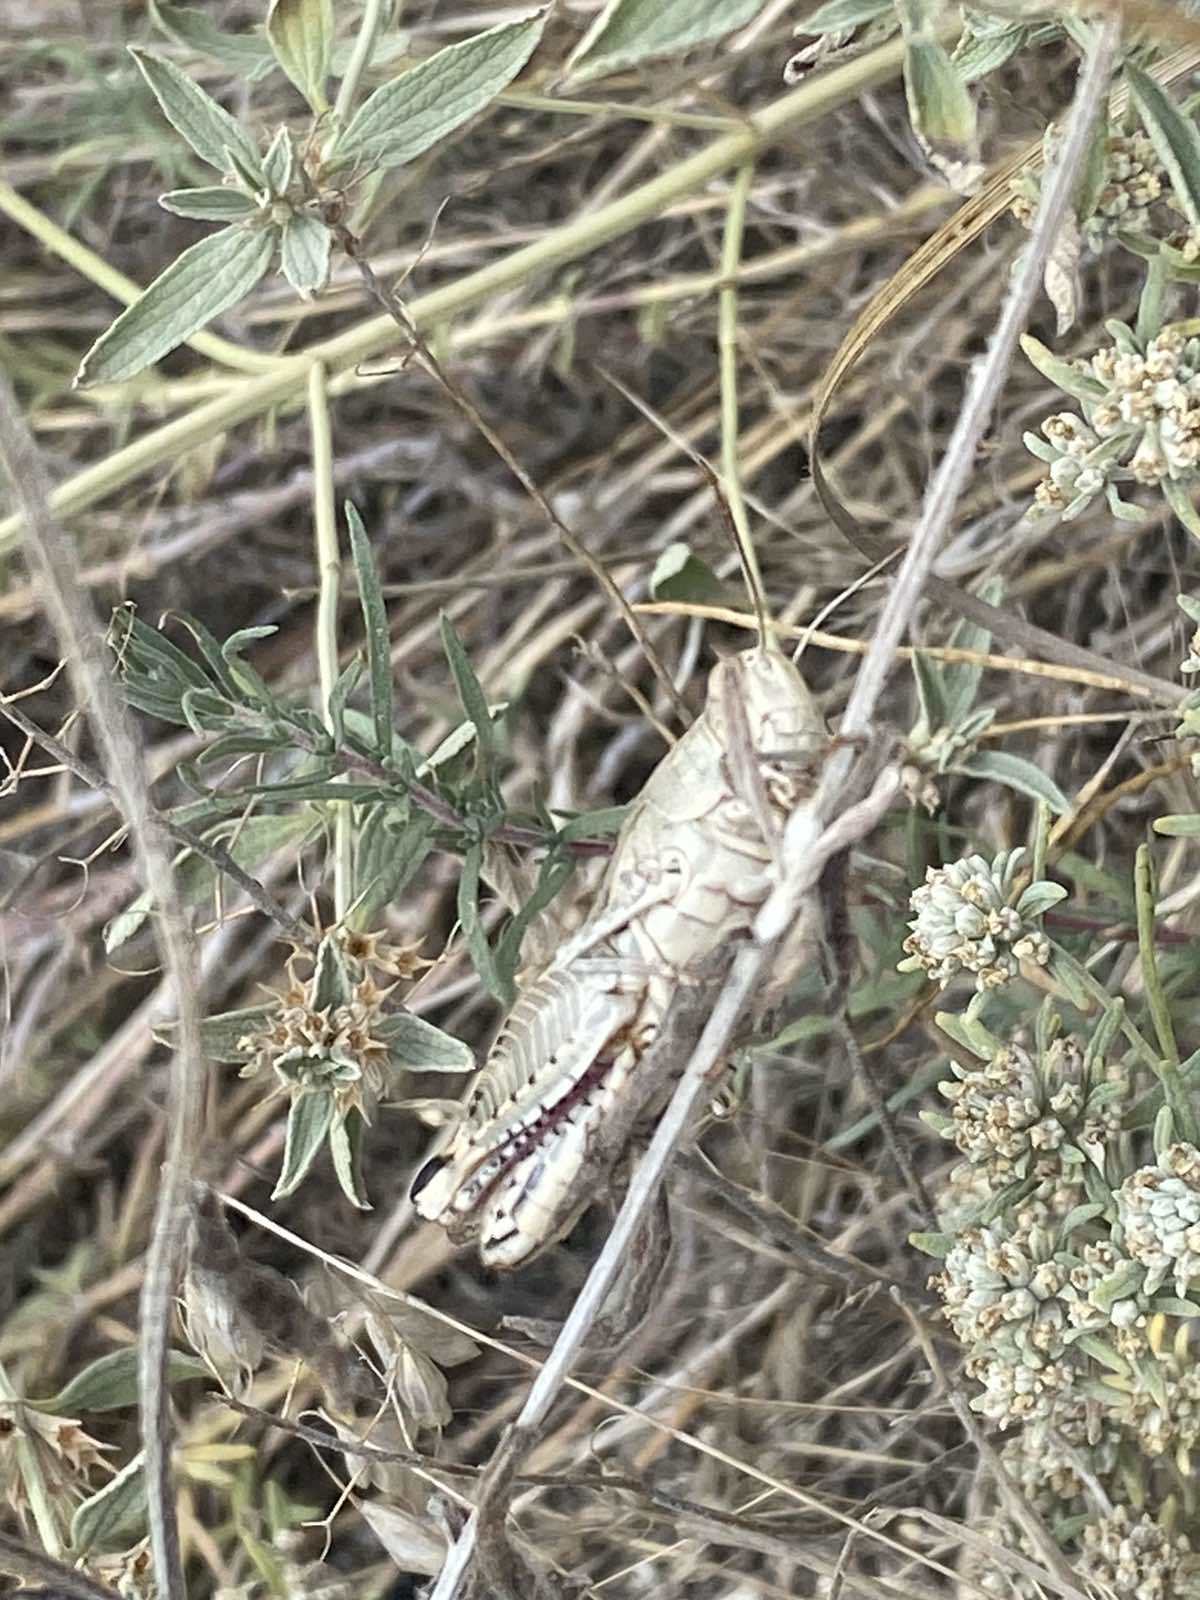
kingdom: Animalia
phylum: Arthropoda
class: Insecta
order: Orthoptera
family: Acrididae
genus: Calliptamus
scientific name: Calliptamus italicus
